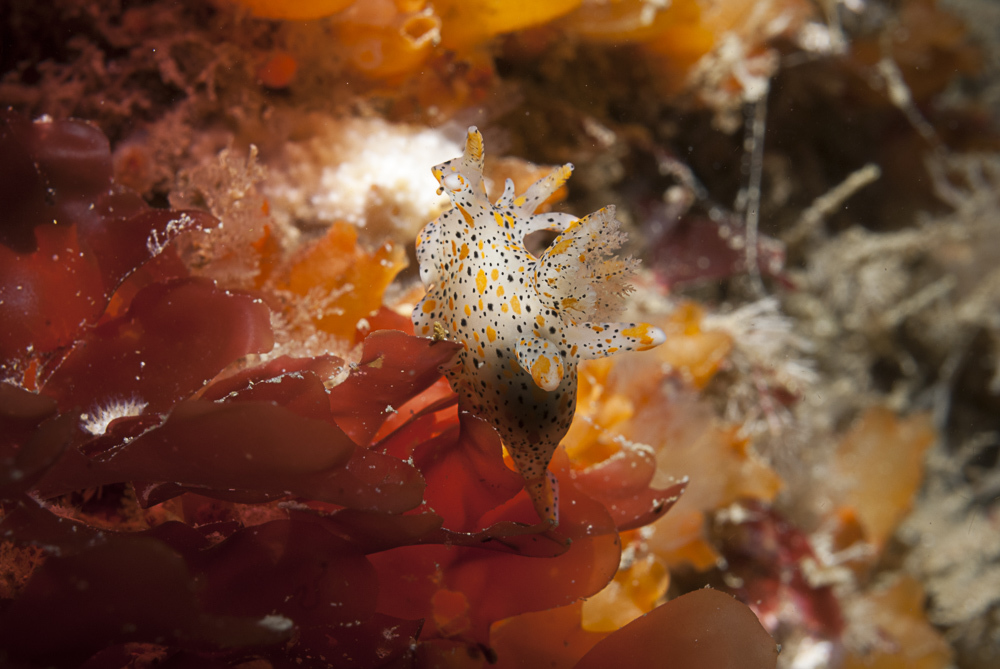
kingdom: Animalia
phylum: Mollusca
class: Gastropoda
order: Nudibranchia
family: Polyceridae
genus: Thecacera
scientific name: Thecacera pennigera
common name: Thecacera
